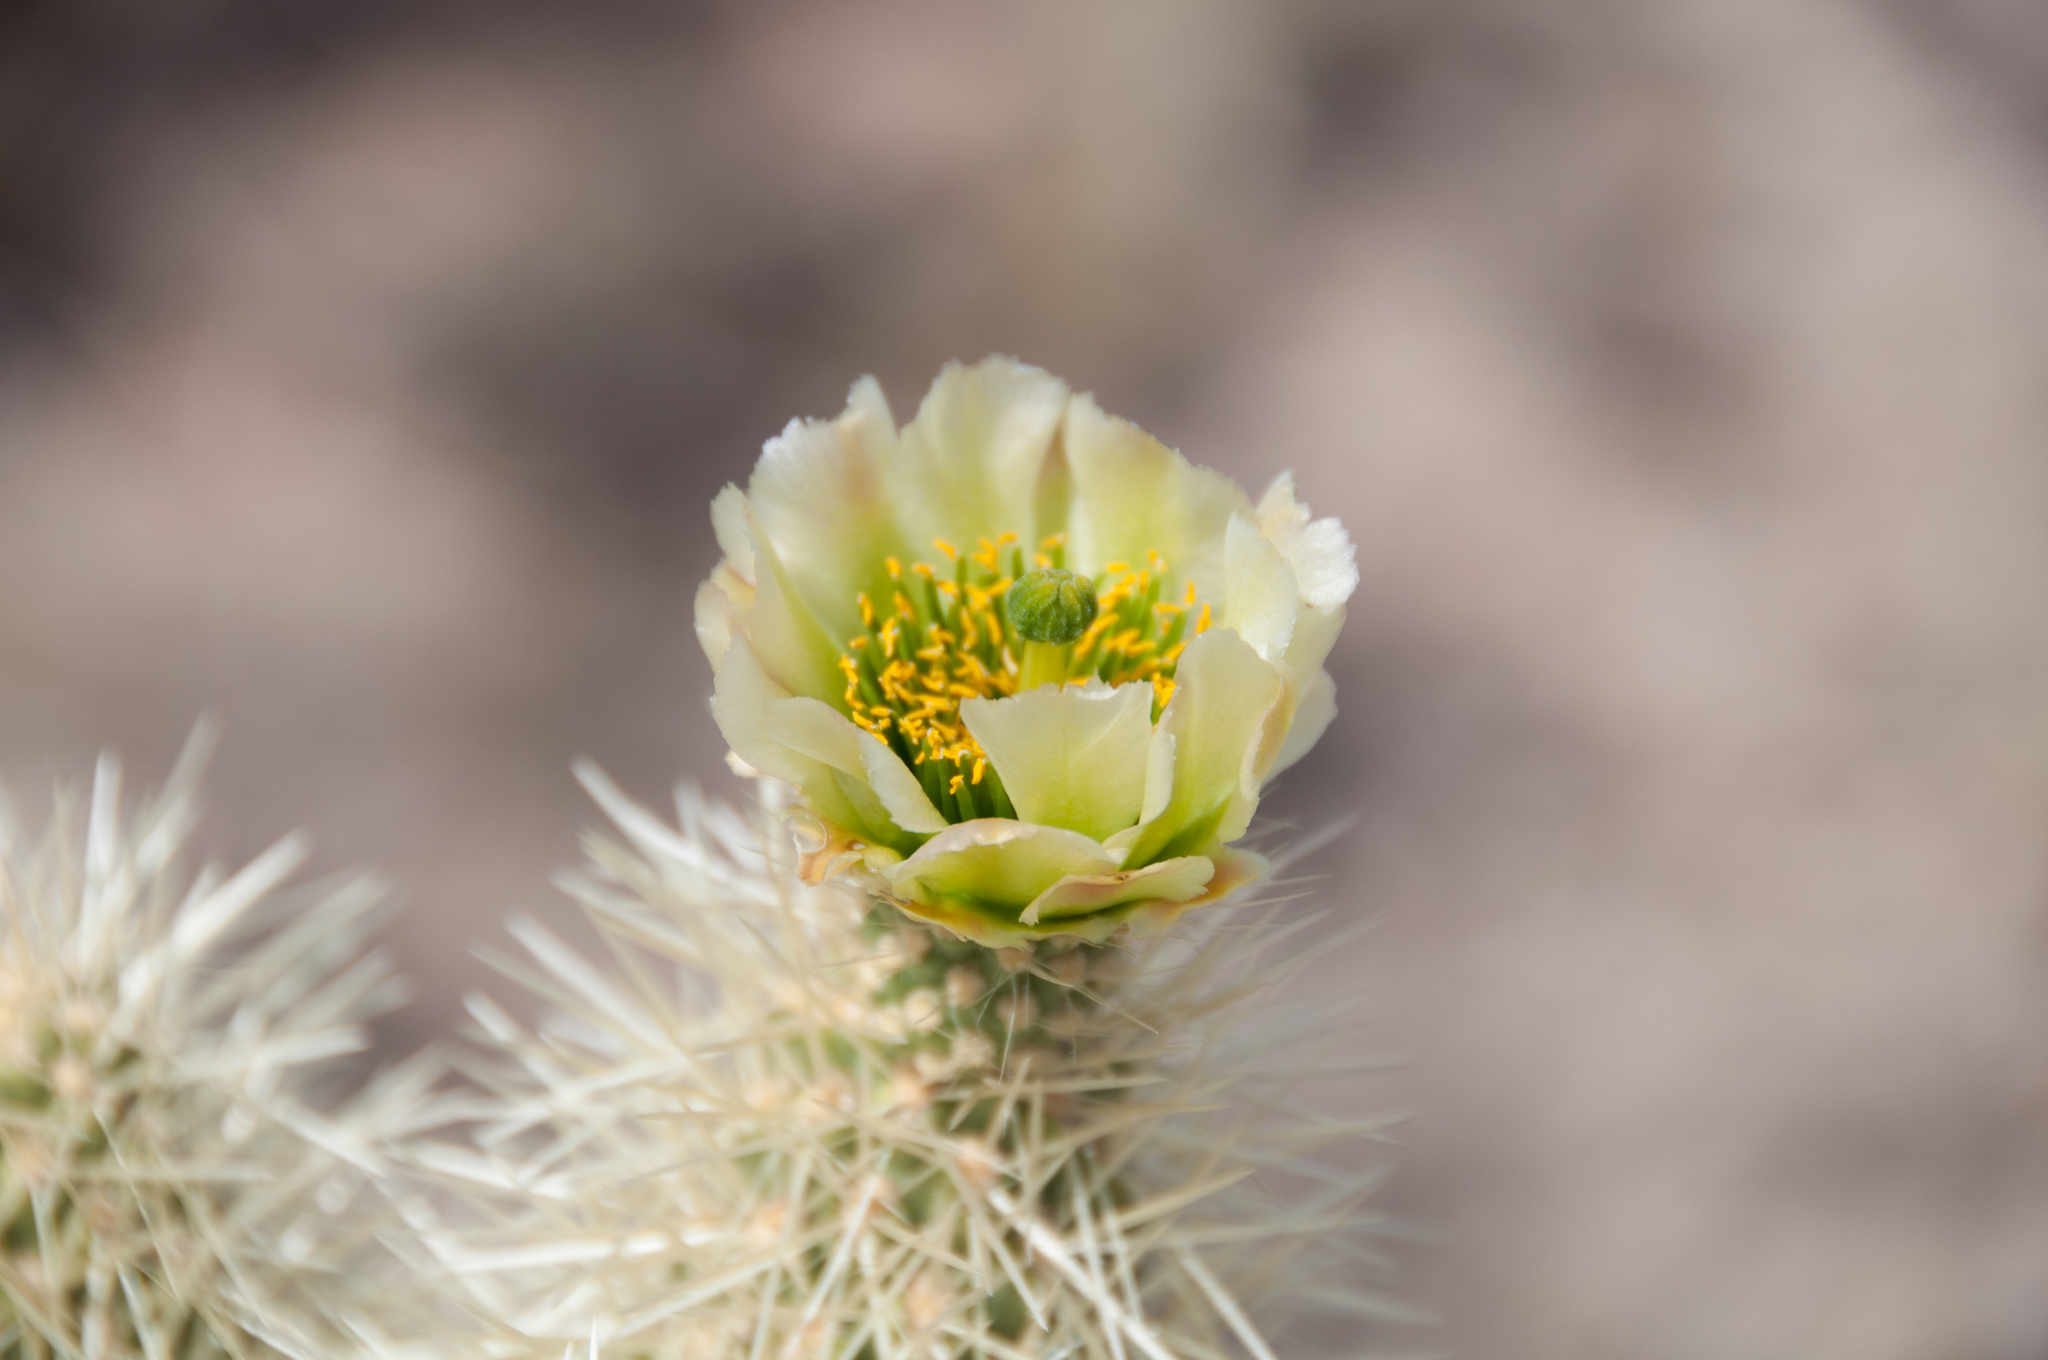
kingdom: Plantae
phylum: Tracheophyta
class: Magnoliopsida
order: Caryophyllales
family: Cactaceae
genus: Cylindropuntia
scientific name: Cylindropuntia fosbergii
